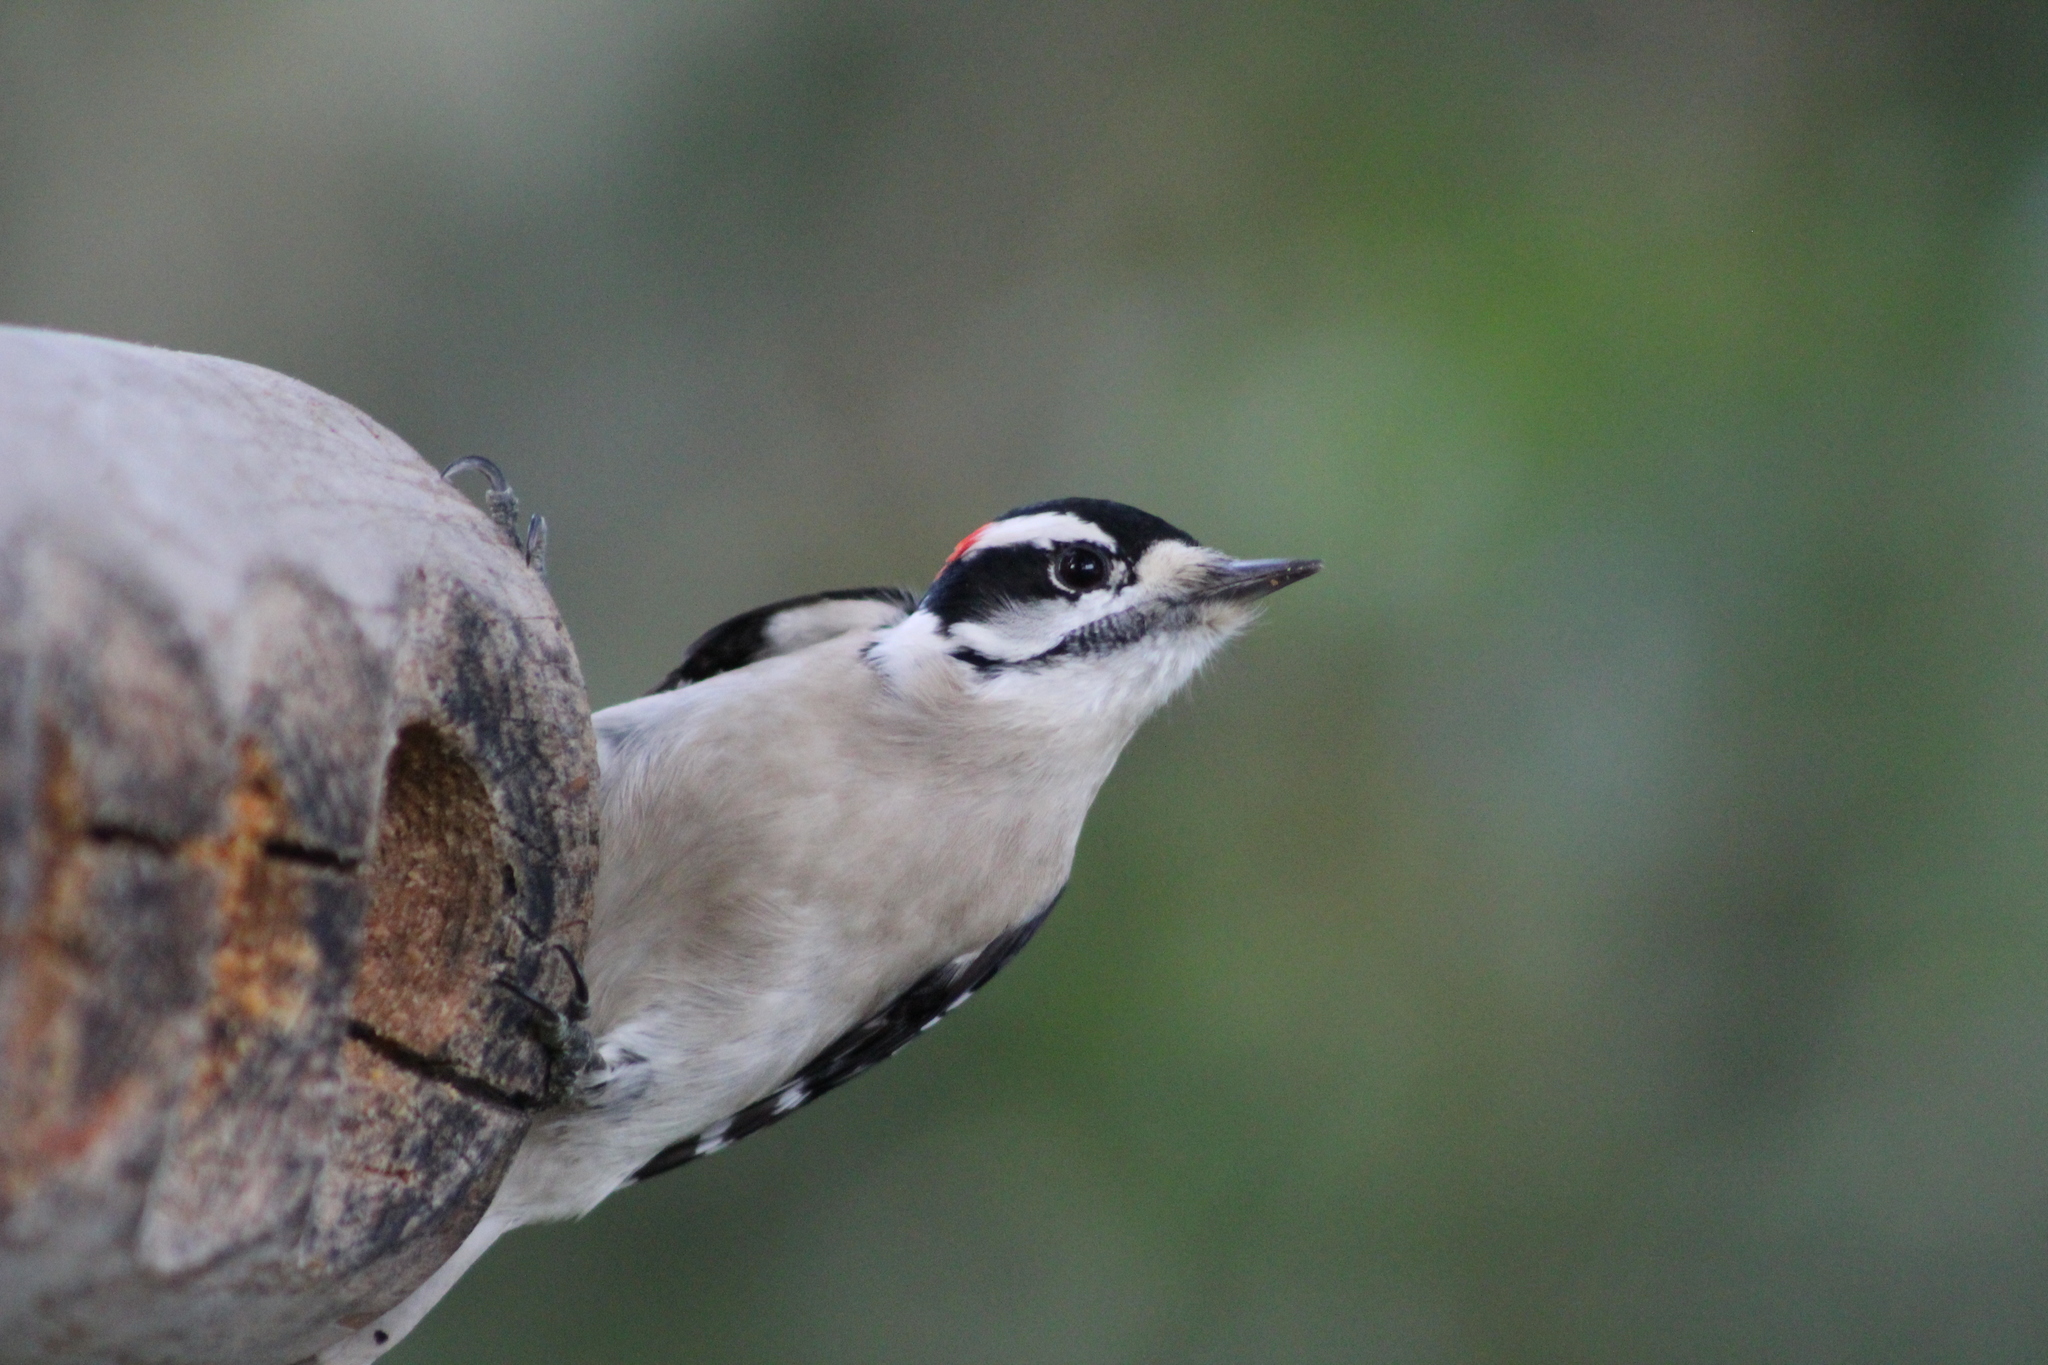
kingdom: Animalia
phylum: Chordata
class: Aves
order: Piciformes
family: Picidae
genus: Dryobates
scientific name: Dryobates pubescens
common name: Downy woodpecker
